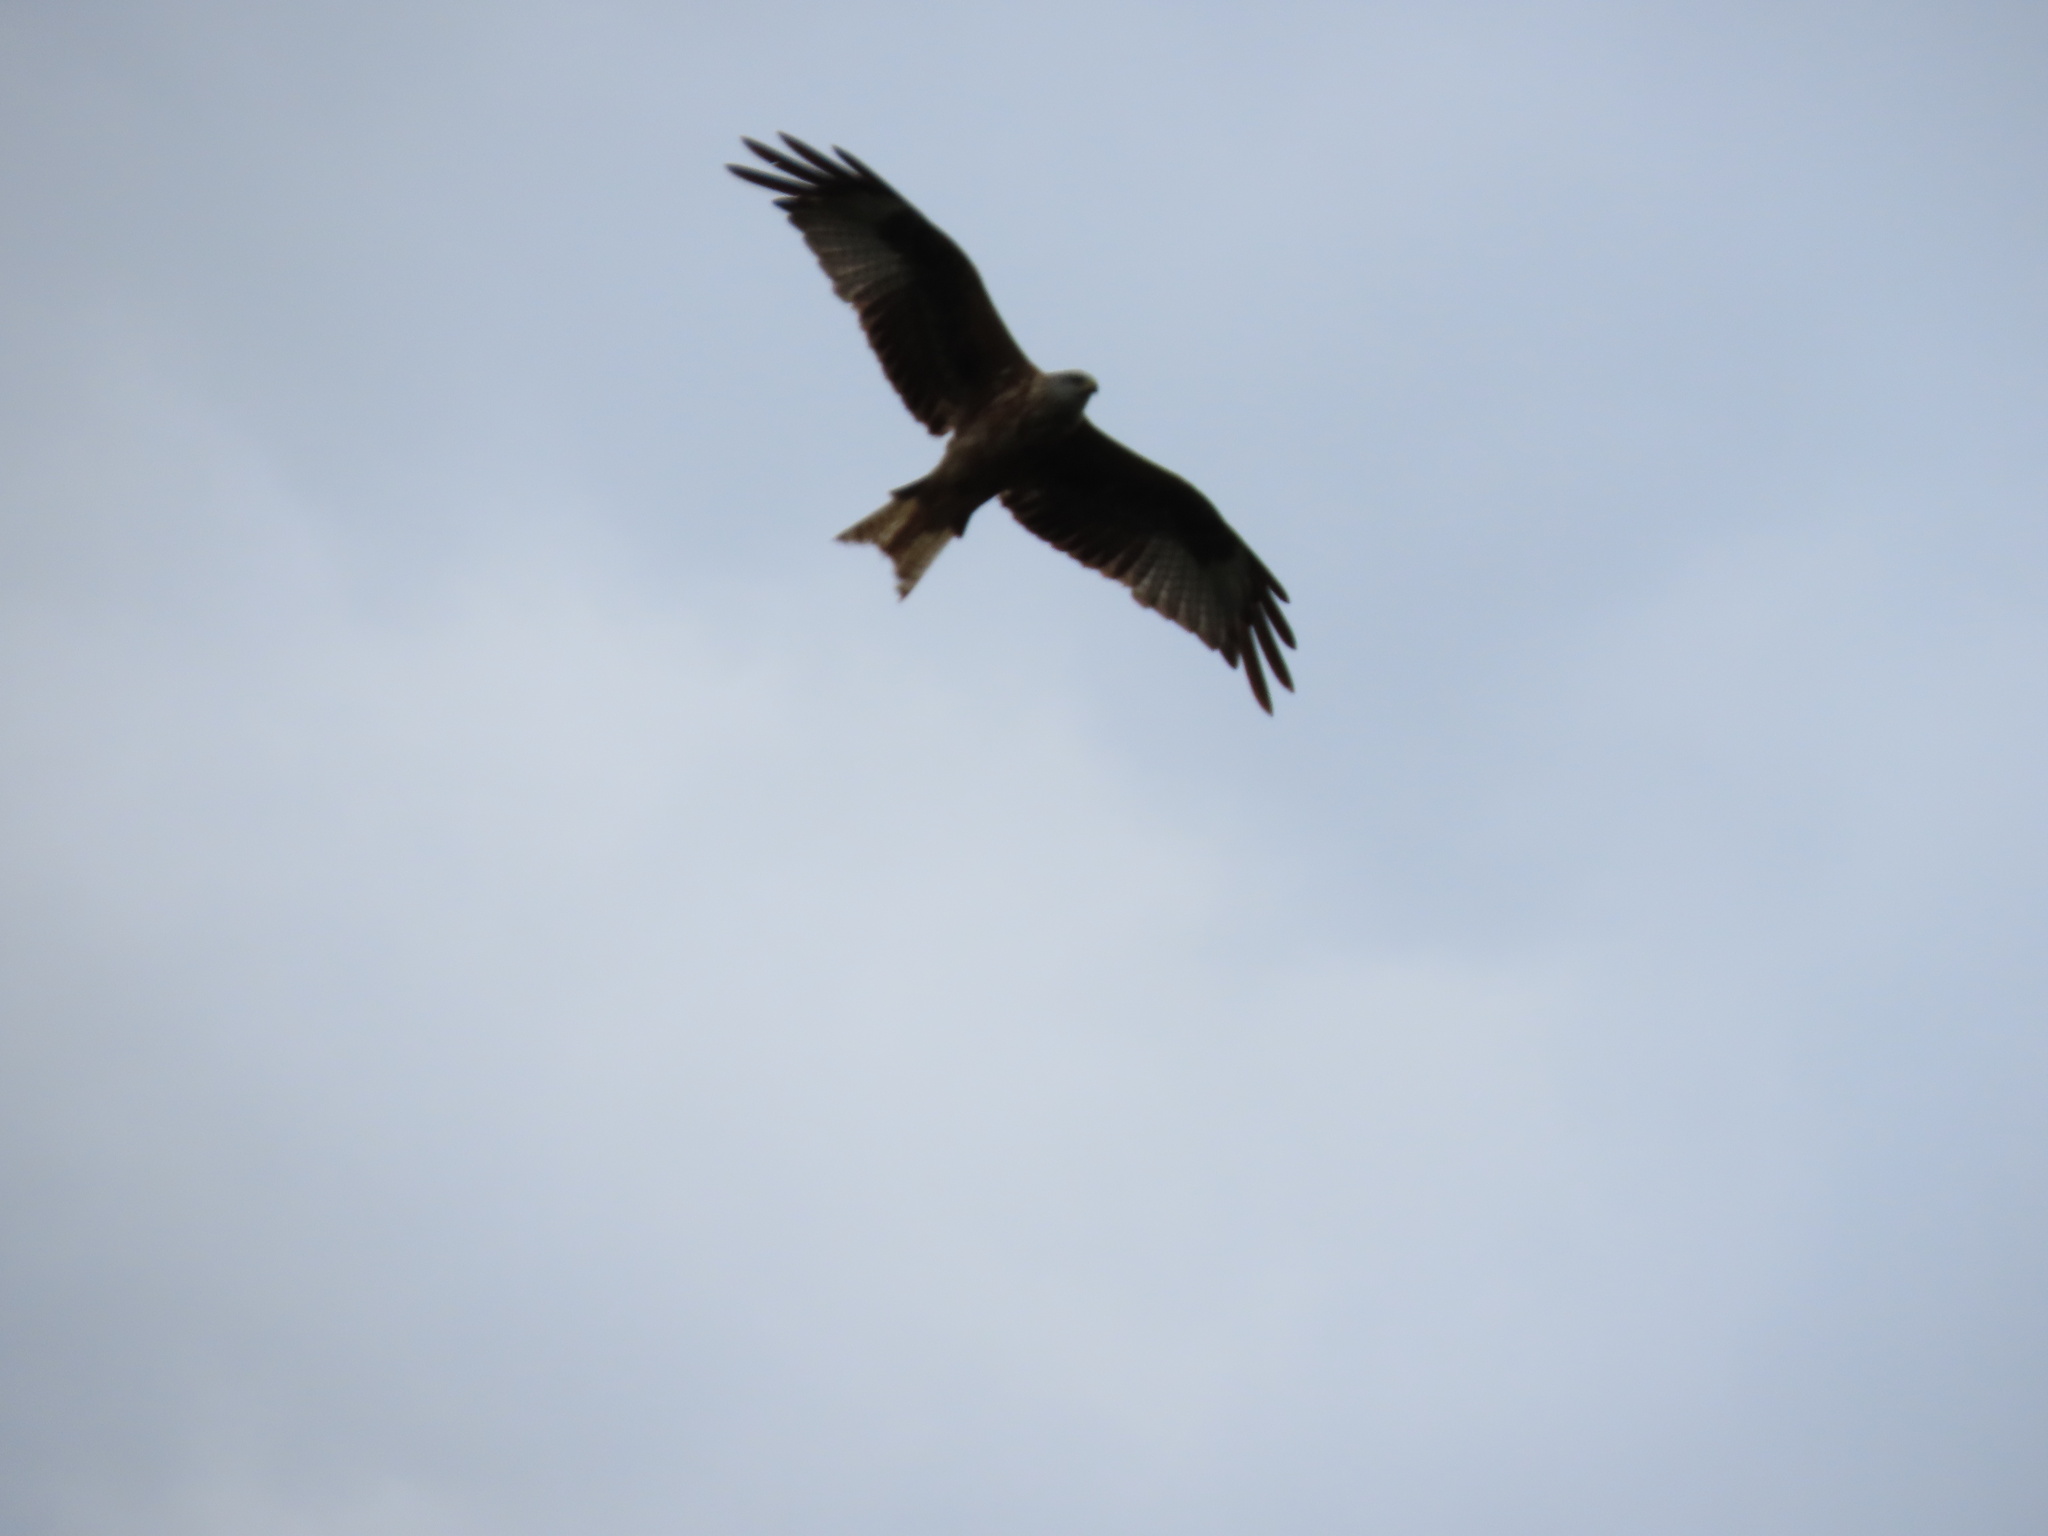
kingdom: Animalia
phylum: Chordata
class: Aves
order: Accipitriformes
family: Accipitridae
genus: Milvus
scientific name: Milvus milvus
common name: Red kite
